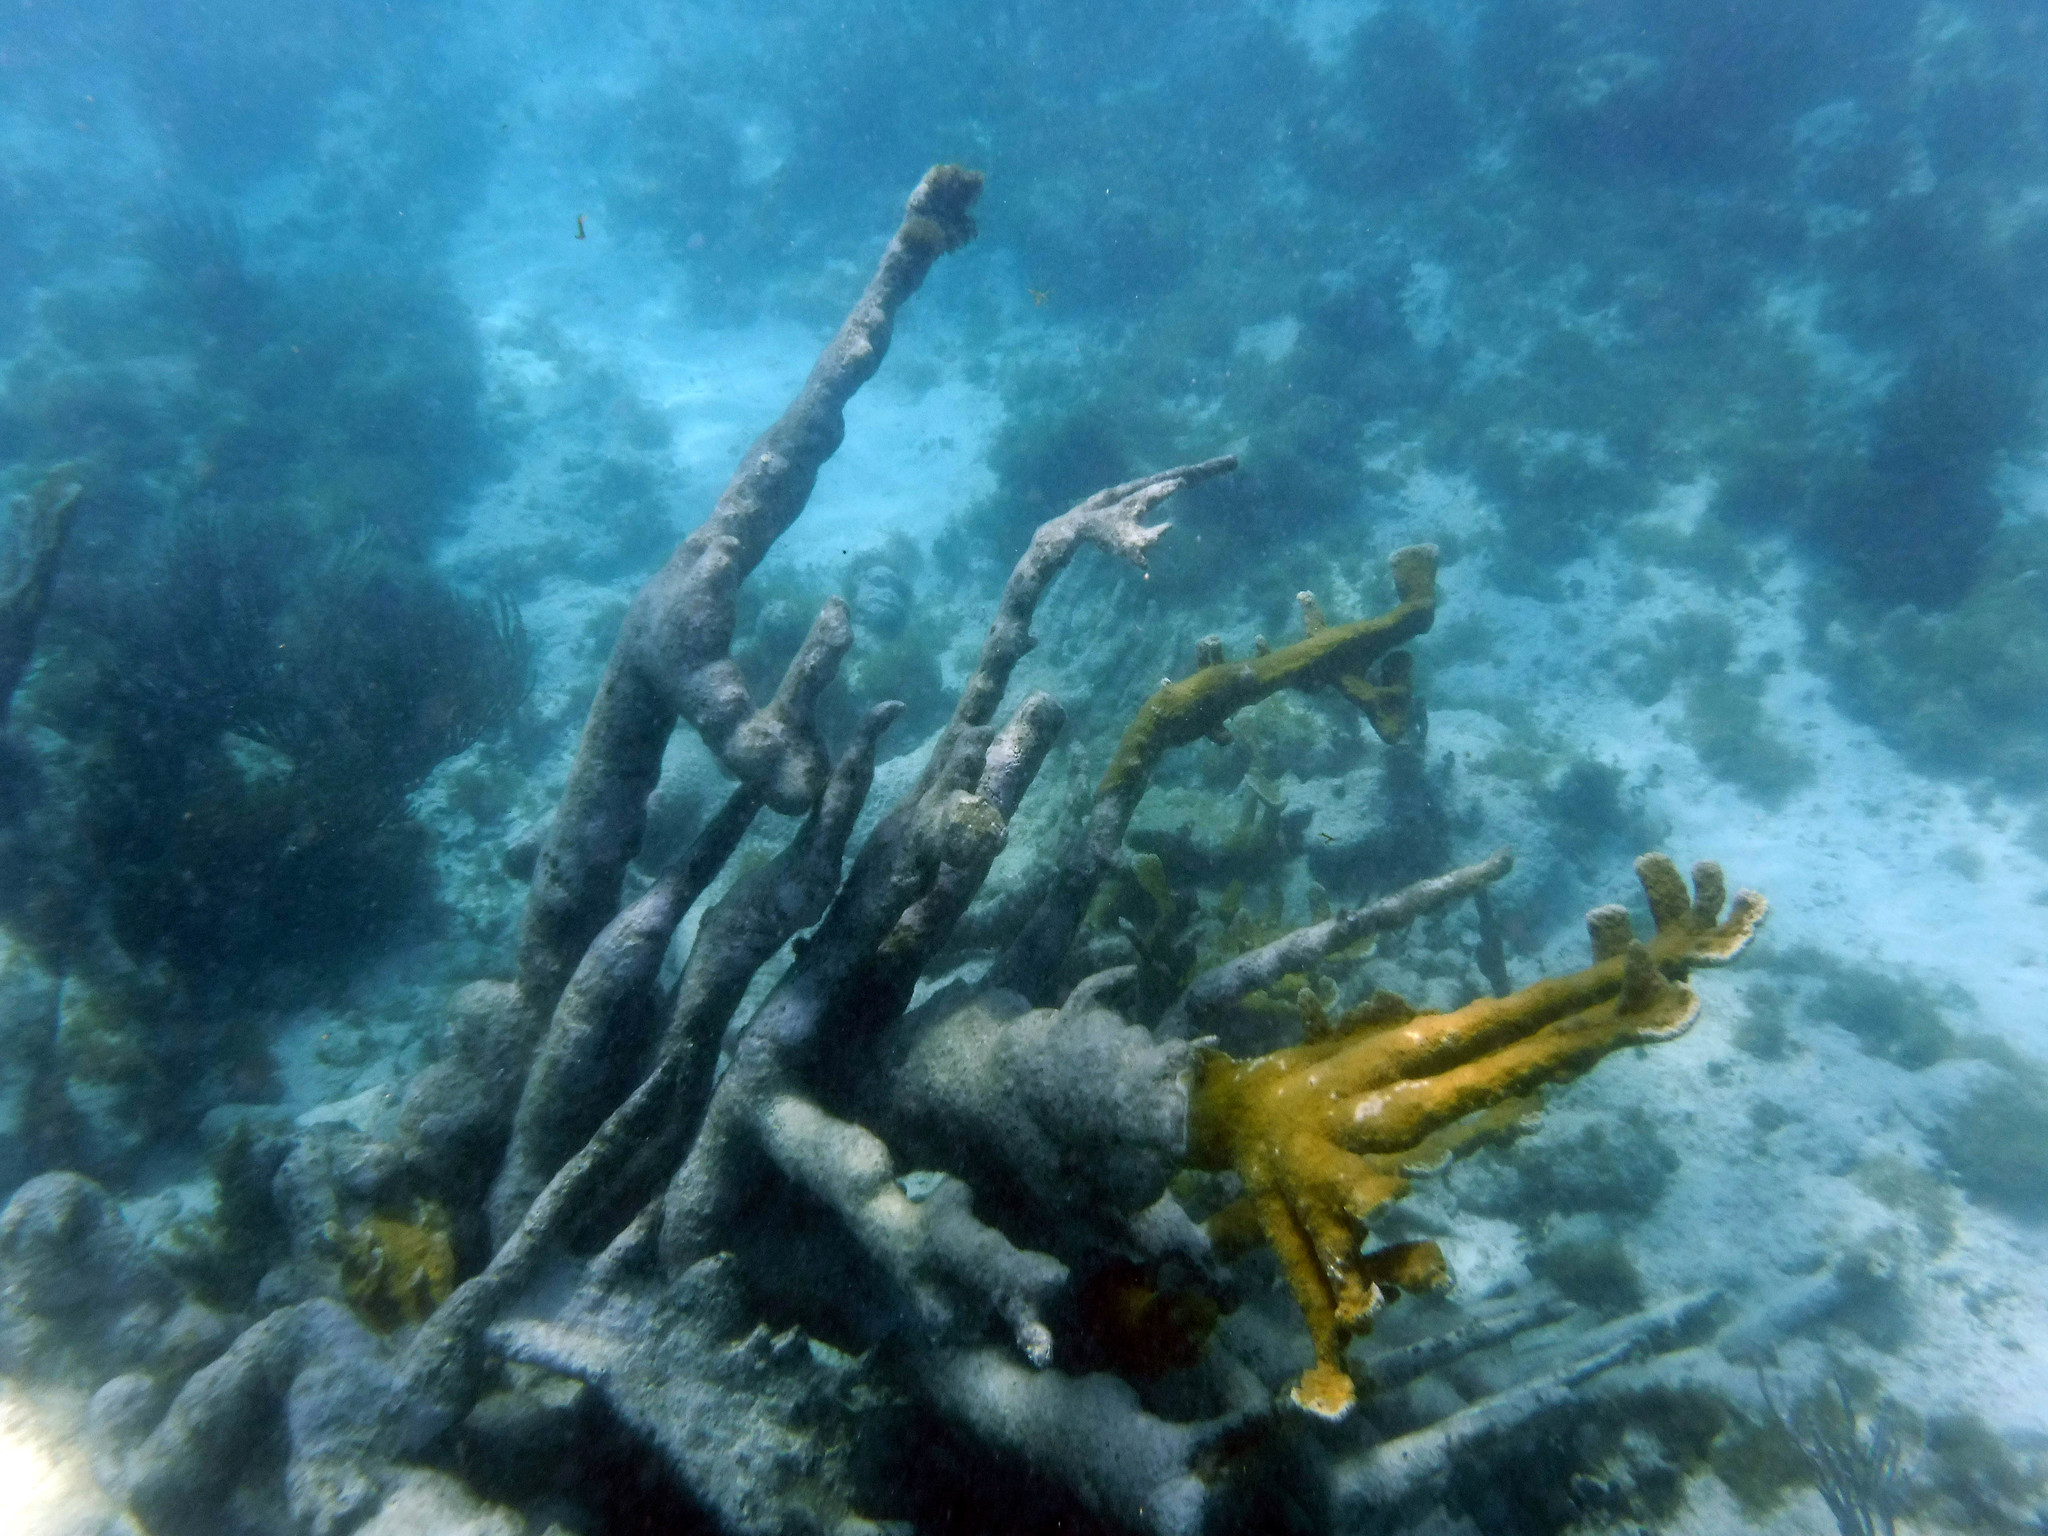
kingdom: Animalia
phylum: Cnidaria
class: Anthozoa
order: Scleractinia
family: Acroporidae
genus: Acropora
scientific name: Acropora palmata
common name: Elkhorn coral
